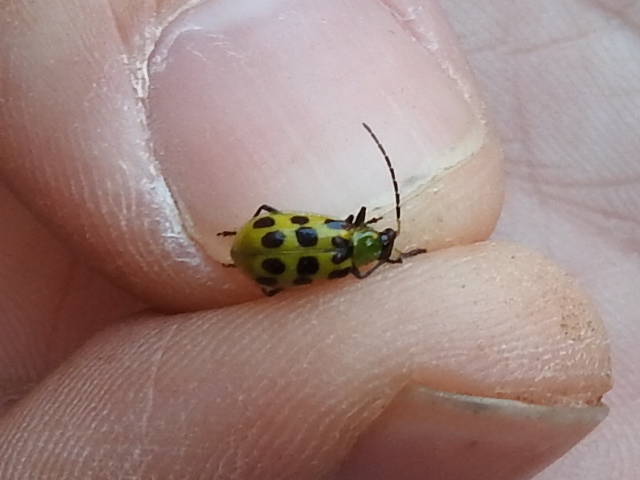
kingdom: Animalia
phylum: Arthropoda
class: Insecta
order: Coleoptera
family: Chrysomelidae
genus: Diabrotica
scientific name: Diabrotica undecimpunctata
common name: Spotted cucumber beetle
